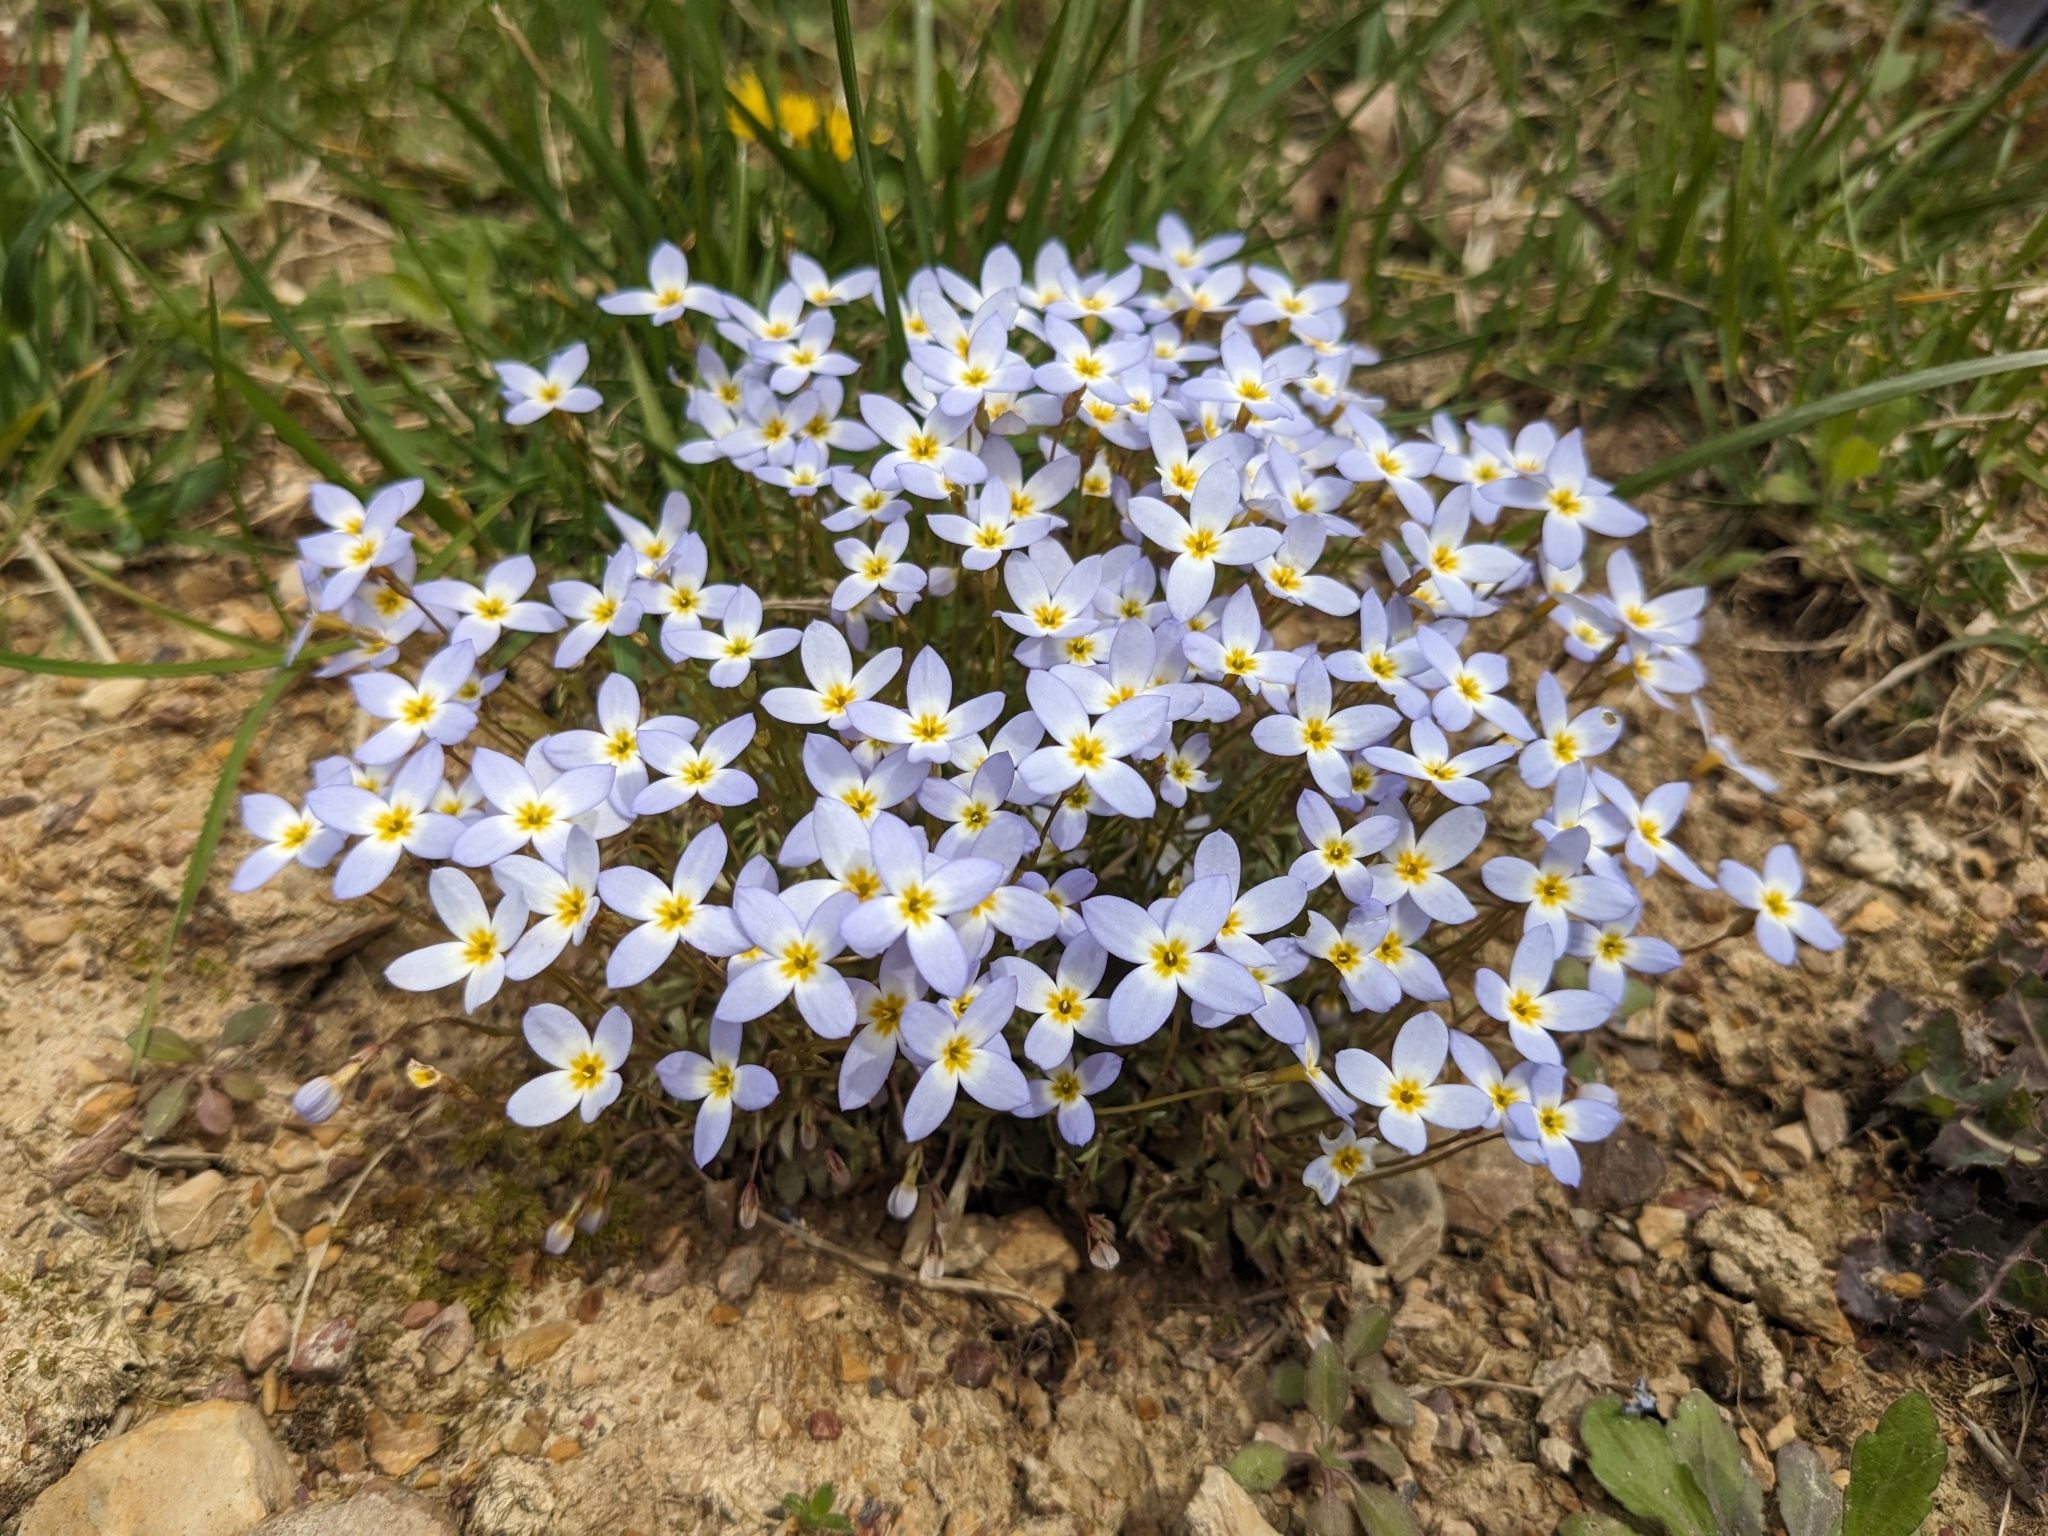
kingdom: Plantae
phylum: Tracheophyta
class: Magnoliopsida
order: Gentianales
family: Rubiaceae
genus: Houstonia
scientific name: Houstonia caerulea
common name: Bluets
